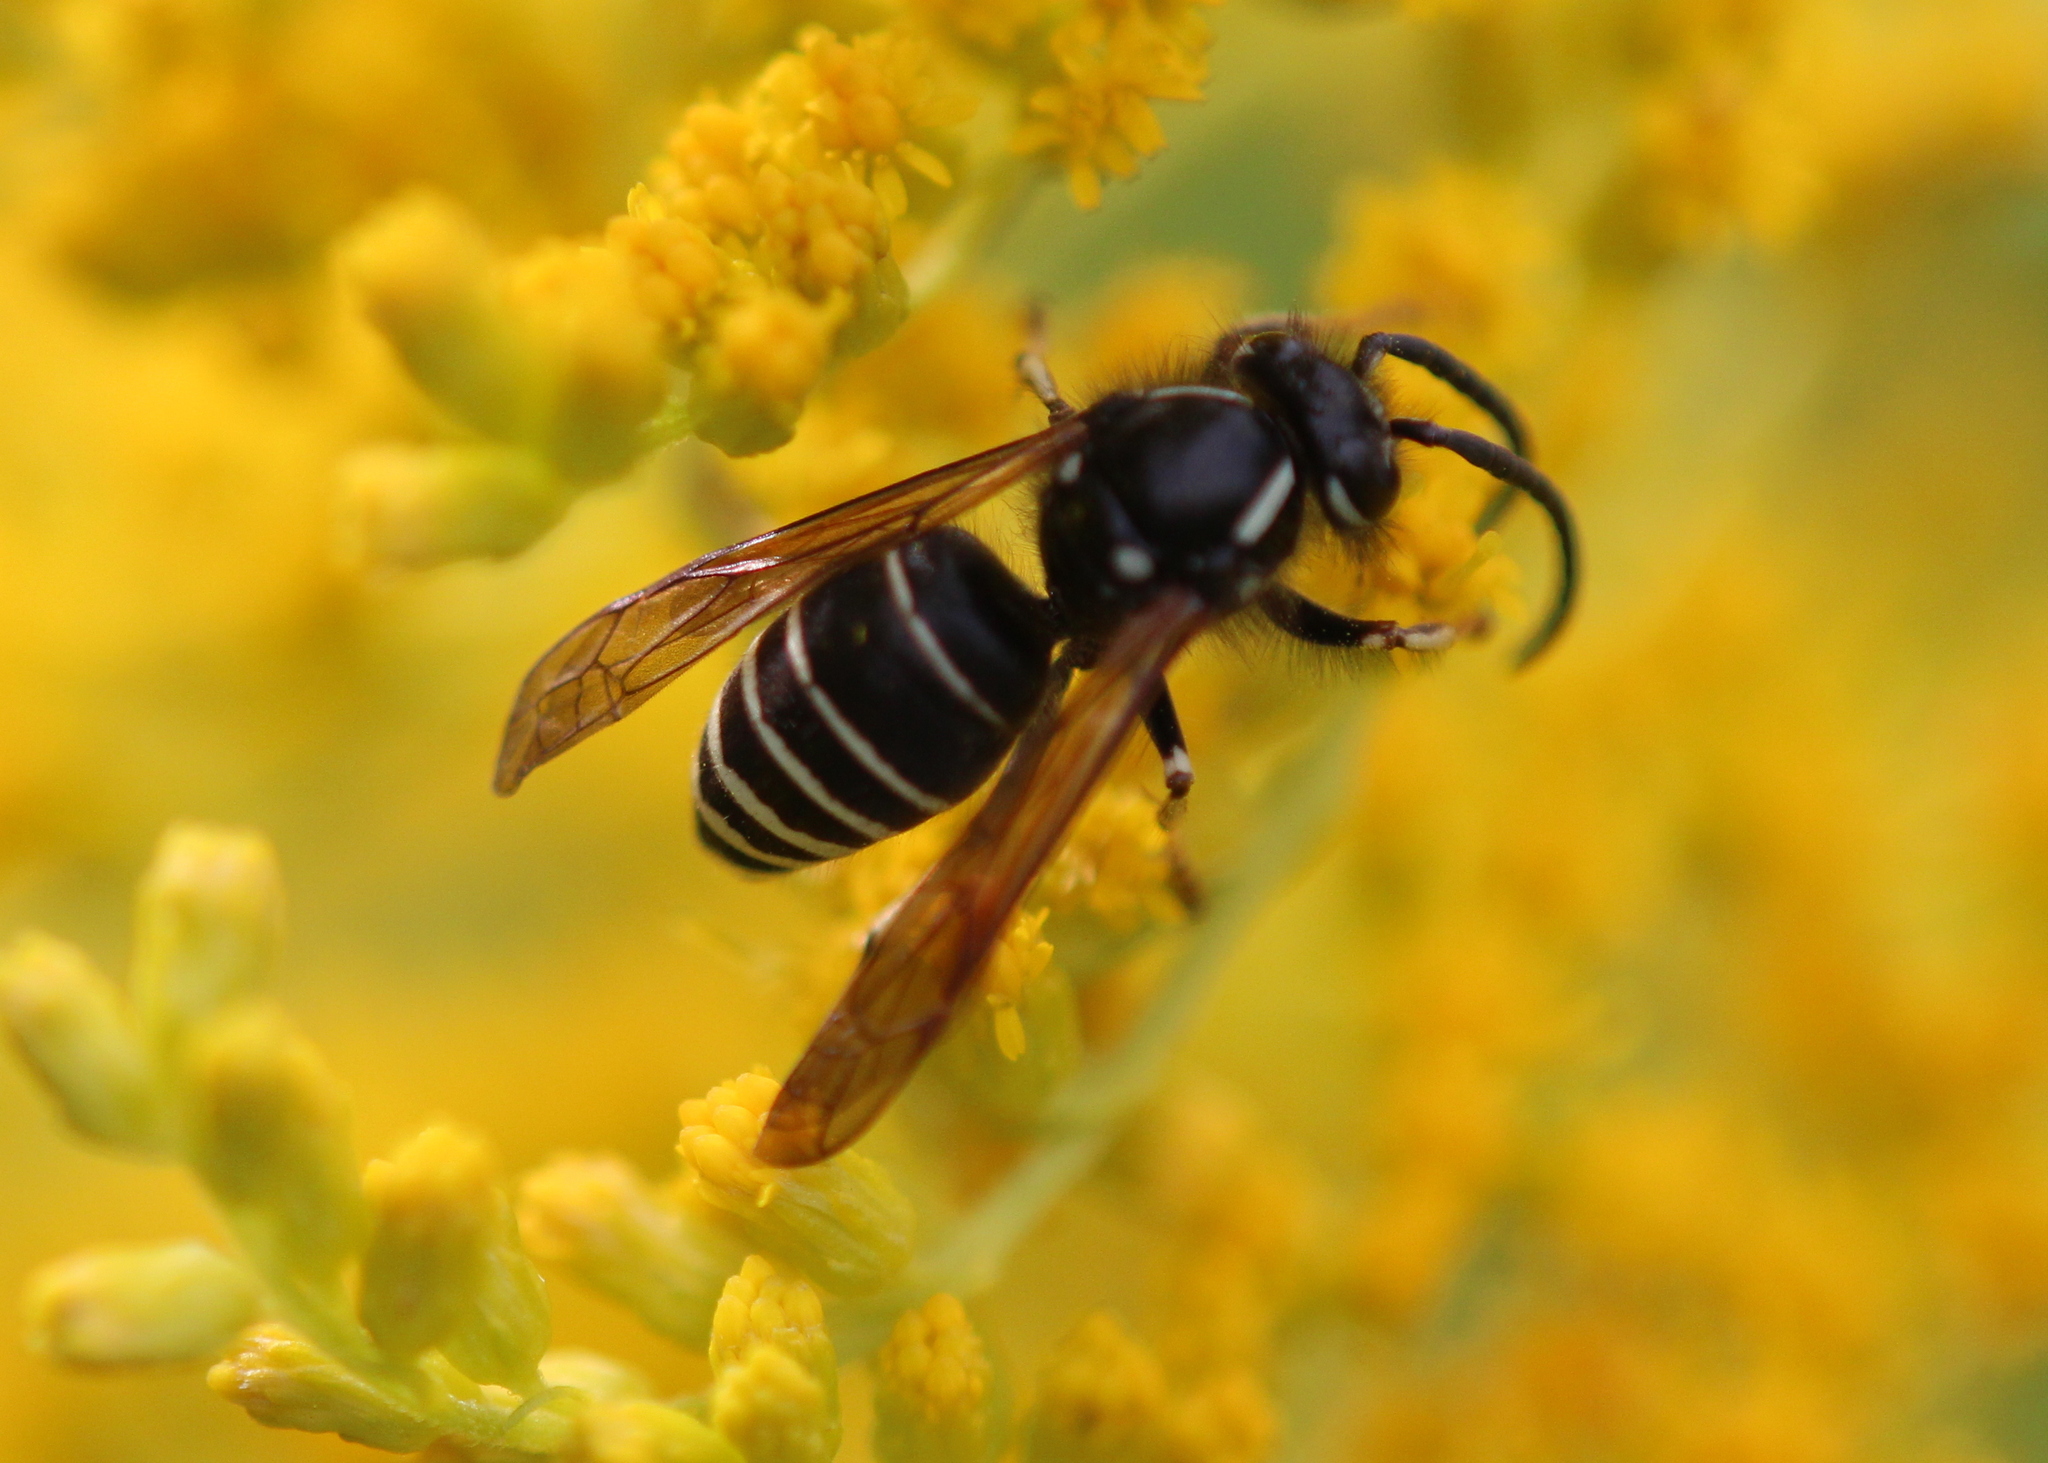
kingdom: Animalia
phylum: Arthropoda
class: Insecta
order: Hymenoptera
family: Vespidae
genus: Dolichovespula
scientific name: Dolichovespula adulterina
